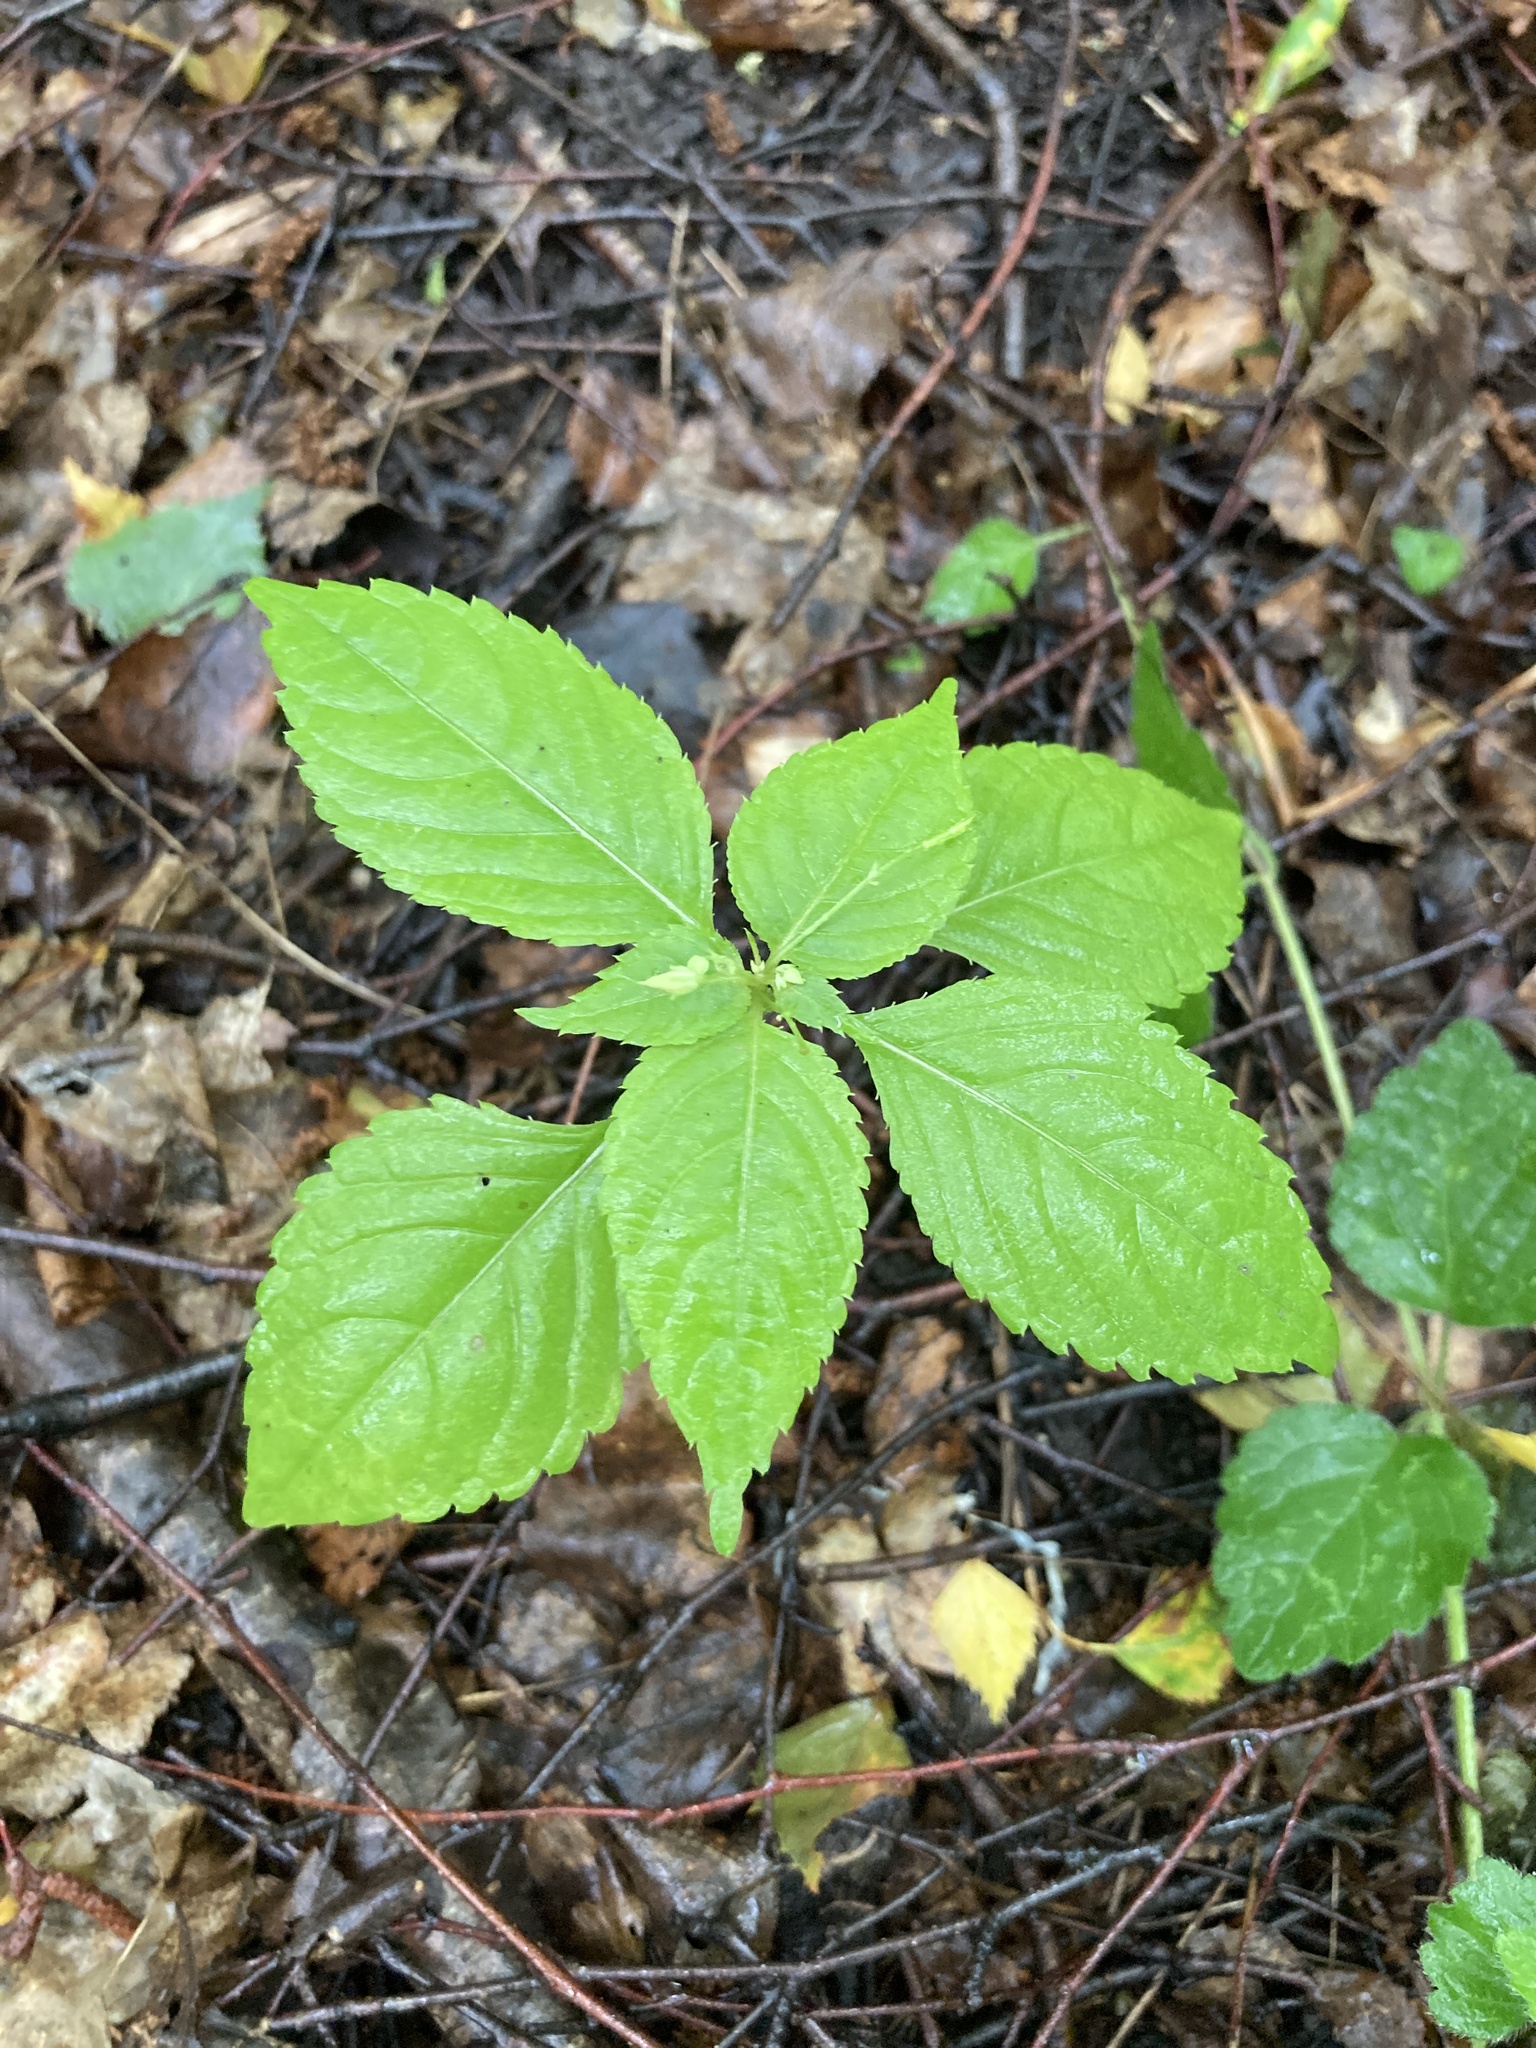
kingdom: Plantae
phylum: Tracheophyta
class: Magnoliopsida
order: Ericales
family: Balsaminaceae
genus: Impatiens
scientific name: Impatiens parviflora
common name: Small balsam
